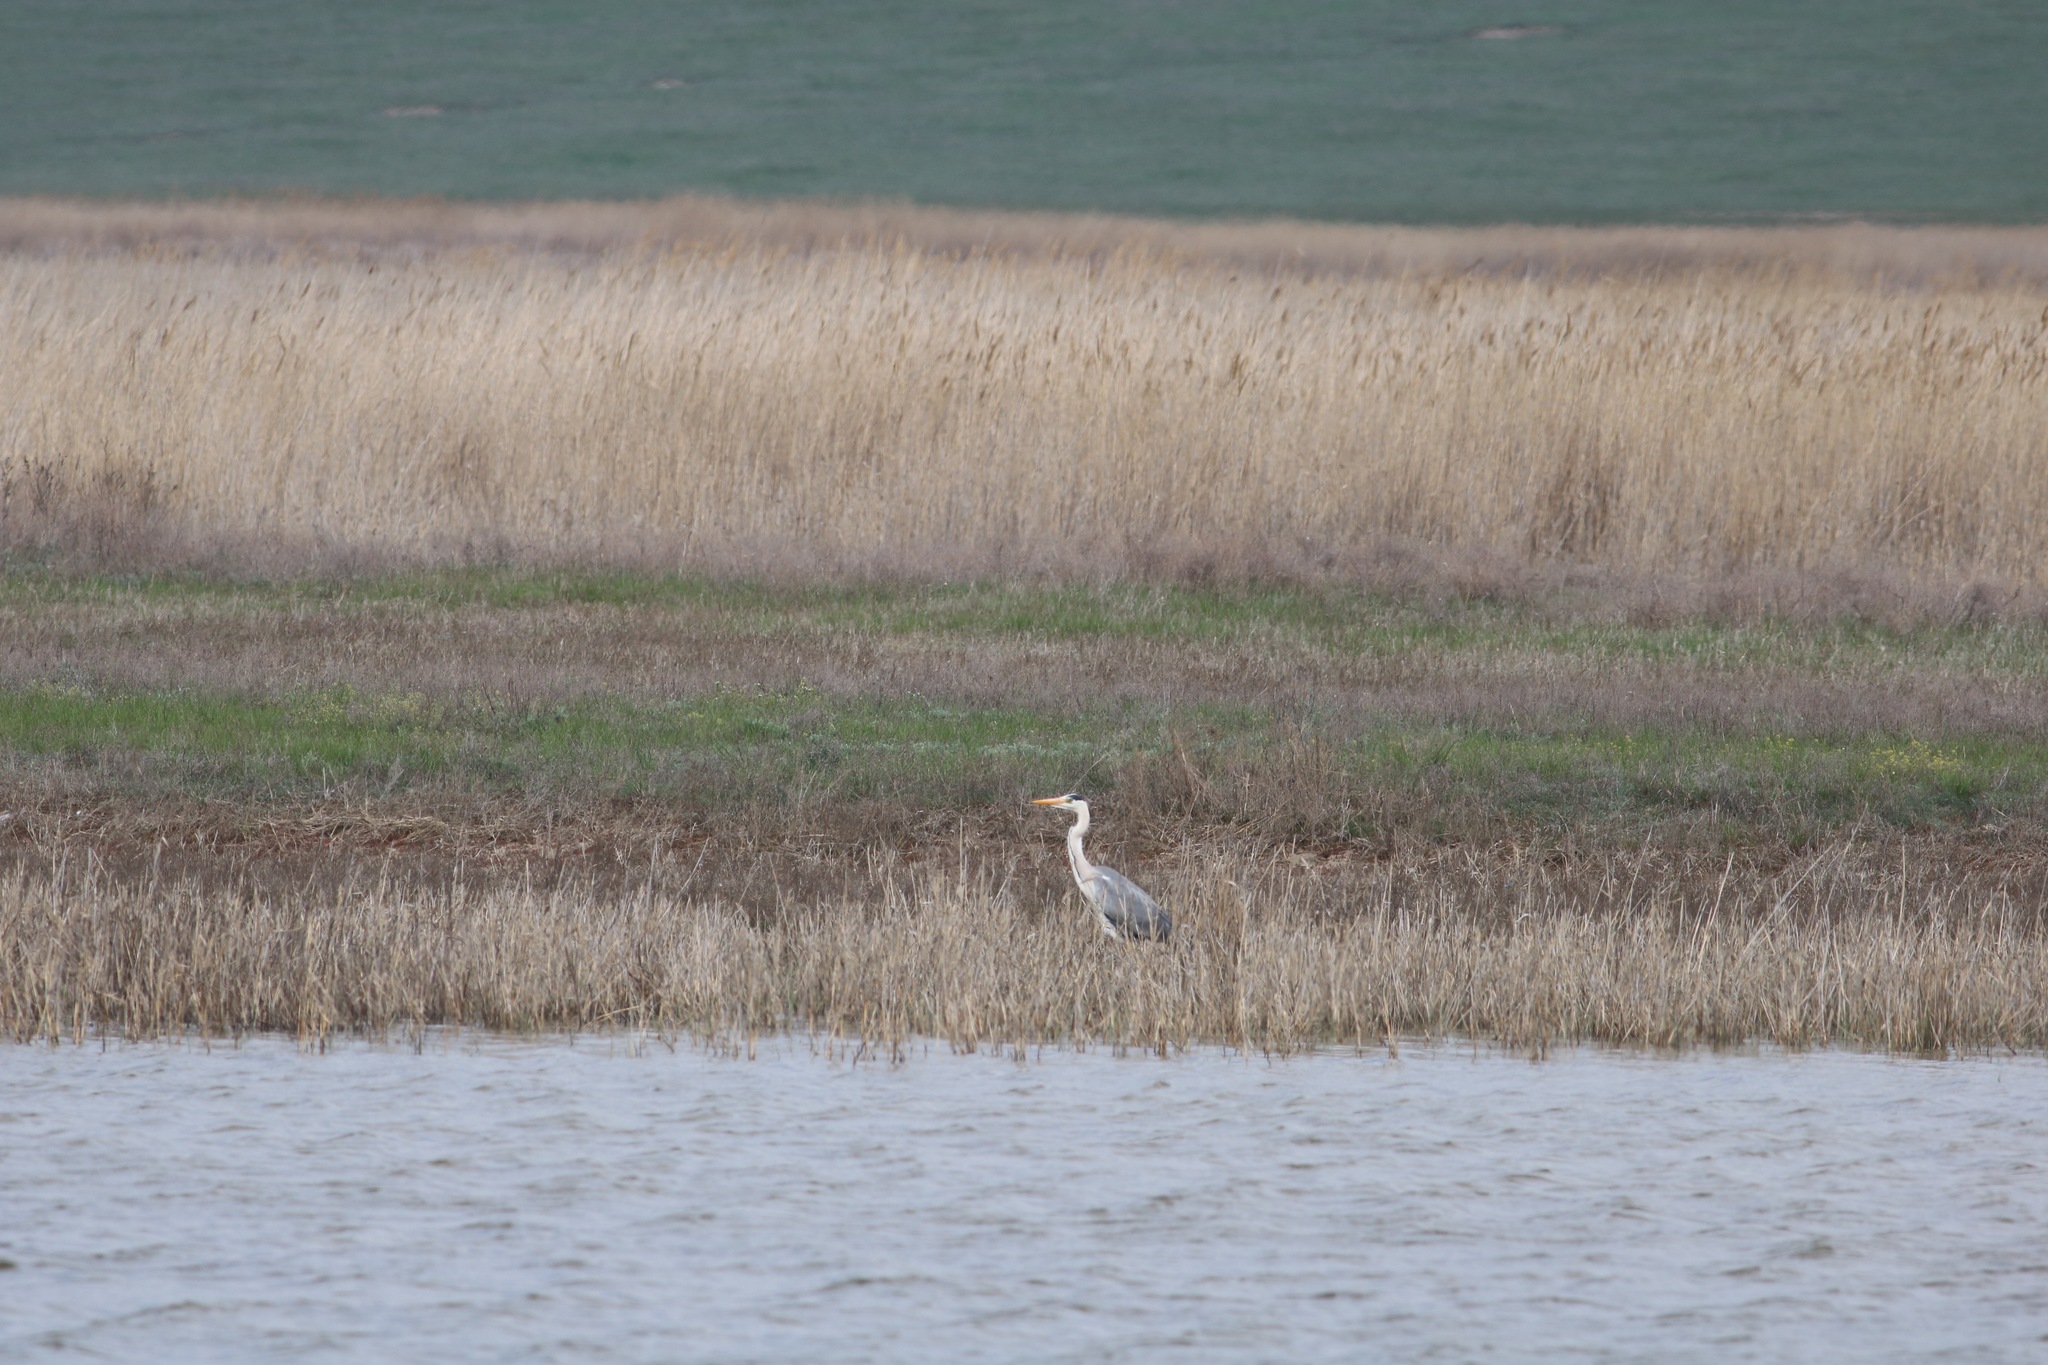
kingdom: Animalia
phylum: Chordata
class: Aves
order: Pelecaniformes
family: Ardeidae
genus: Ardea
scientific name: Ardea cinerea
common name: Grey heron
